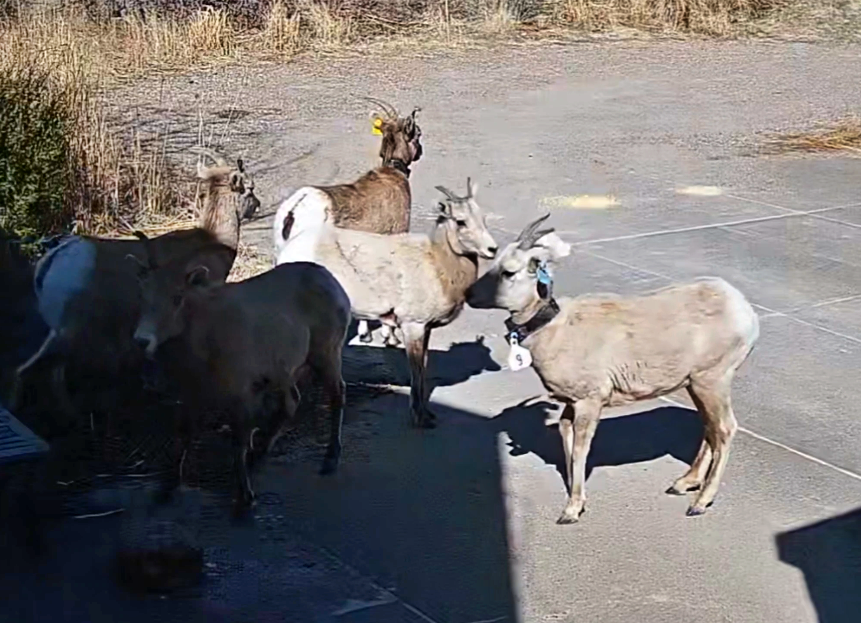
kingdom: Animalia
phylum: Chordata
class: Mammalia
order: Artiodactyla
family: Bovidae
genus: Ovis
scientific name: Ovis canadensis
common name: Bighorn sheep
